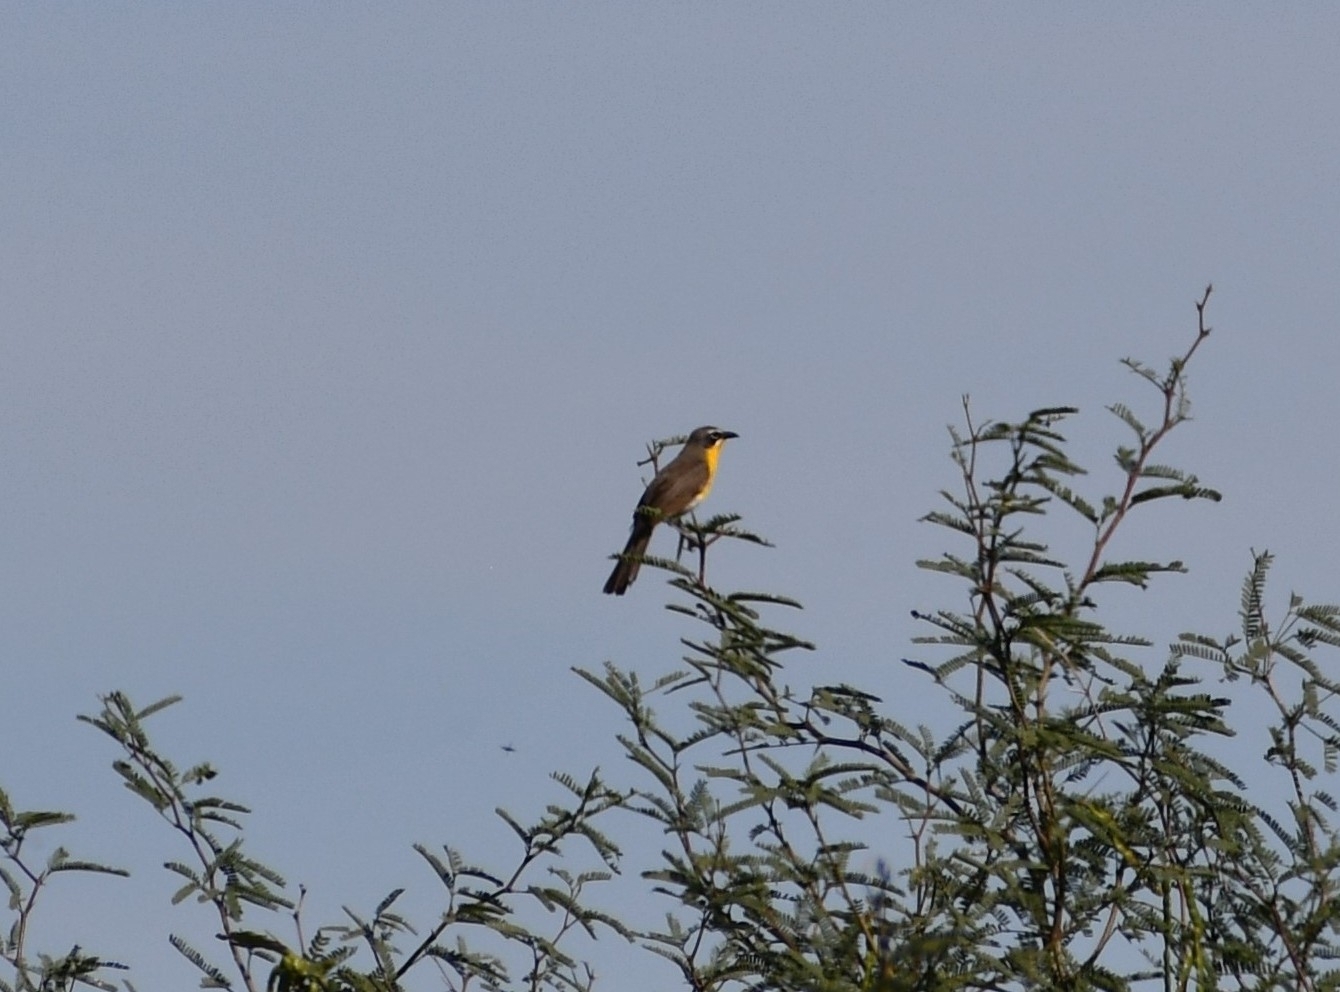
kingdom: Animalia
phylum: Chordata
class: Aves
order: Passeriformes
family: Parulidae
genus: Icteria
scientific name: Icteria virens
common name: Yellow-breasted chat
